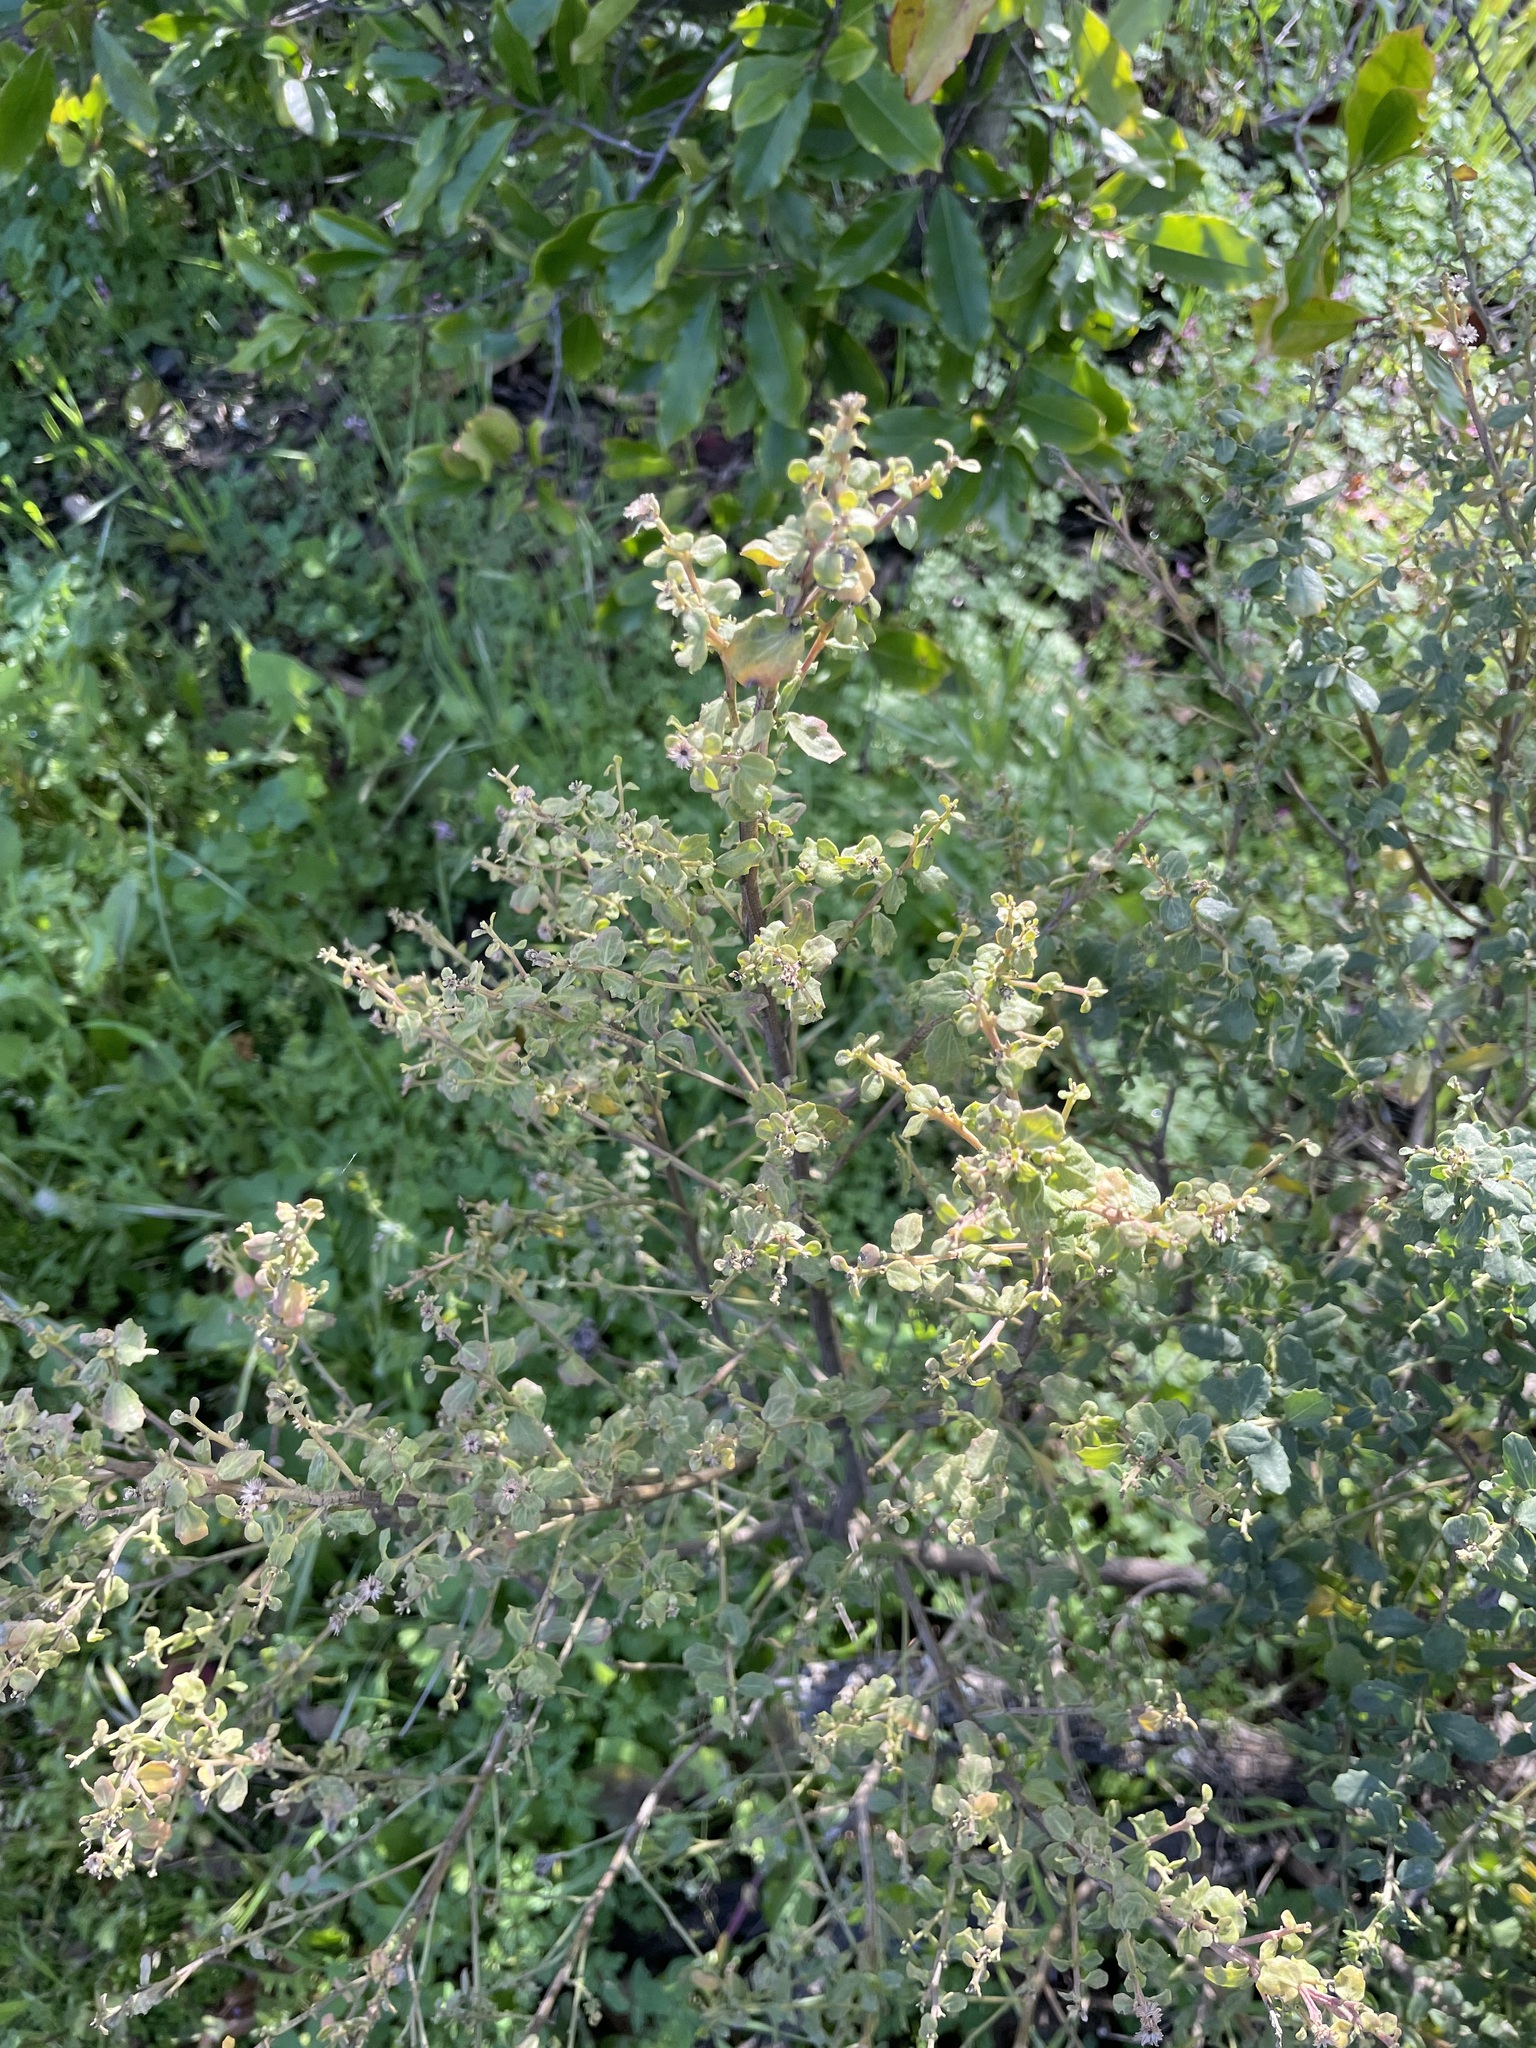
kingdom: Plantae
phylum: Tracheophyta
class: Magnoliopsida
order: Asterales
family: Asteraceae
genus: Baccharis
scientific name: Baccharis pilularis
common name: Coyotebrush
